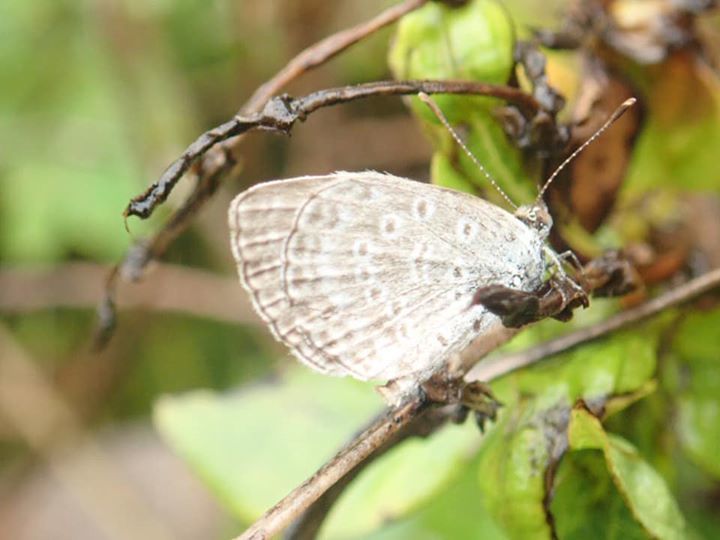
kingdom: Animalia
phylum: Arthropoda
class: Insecta
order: Lepidoptera
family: Lycaenidae
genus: Pseudozizeeria
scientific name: Pseudozizeeria maha
